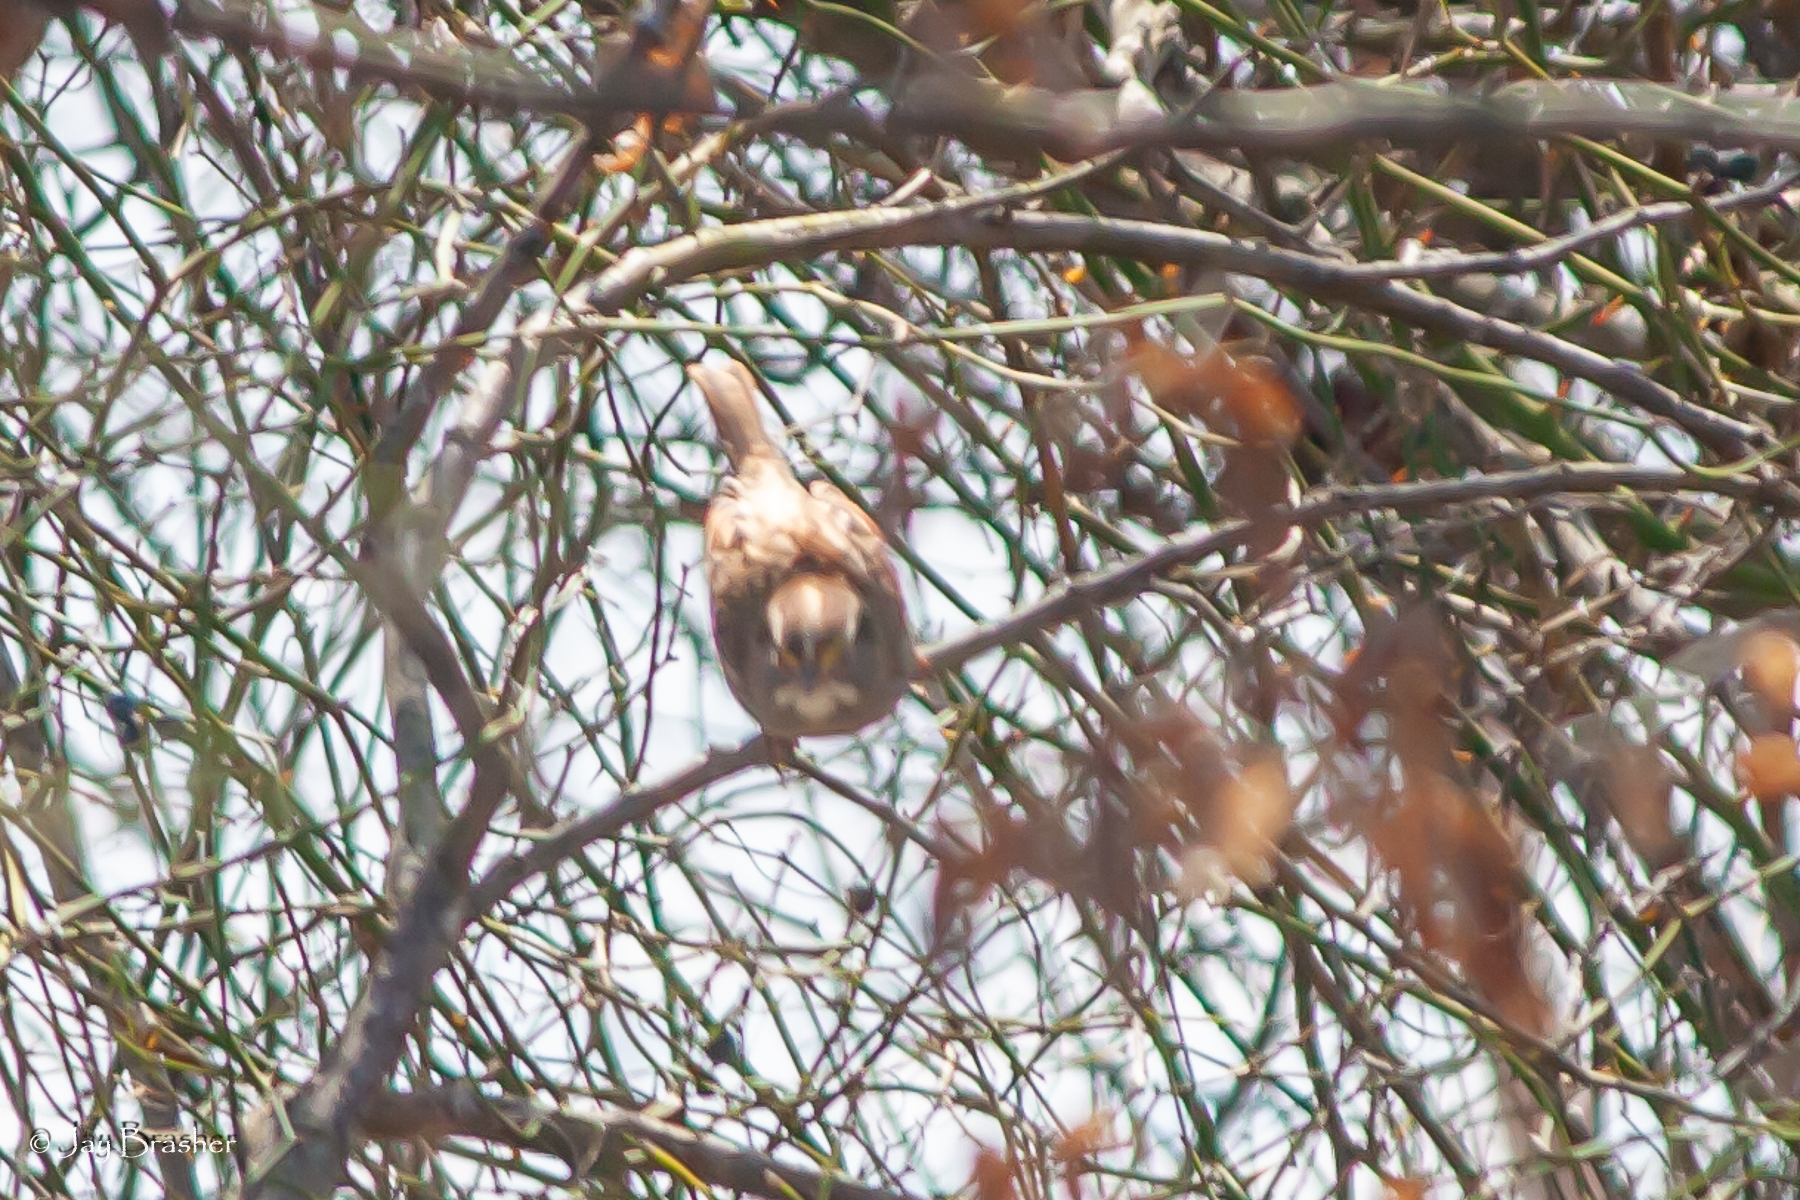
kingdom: Animalia
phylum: Chordata
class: Aves
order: Passeriformes
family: Passerellidae
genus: Zonotrichia
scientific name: Zonotrichia albicollis
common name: White-throated sparrow
